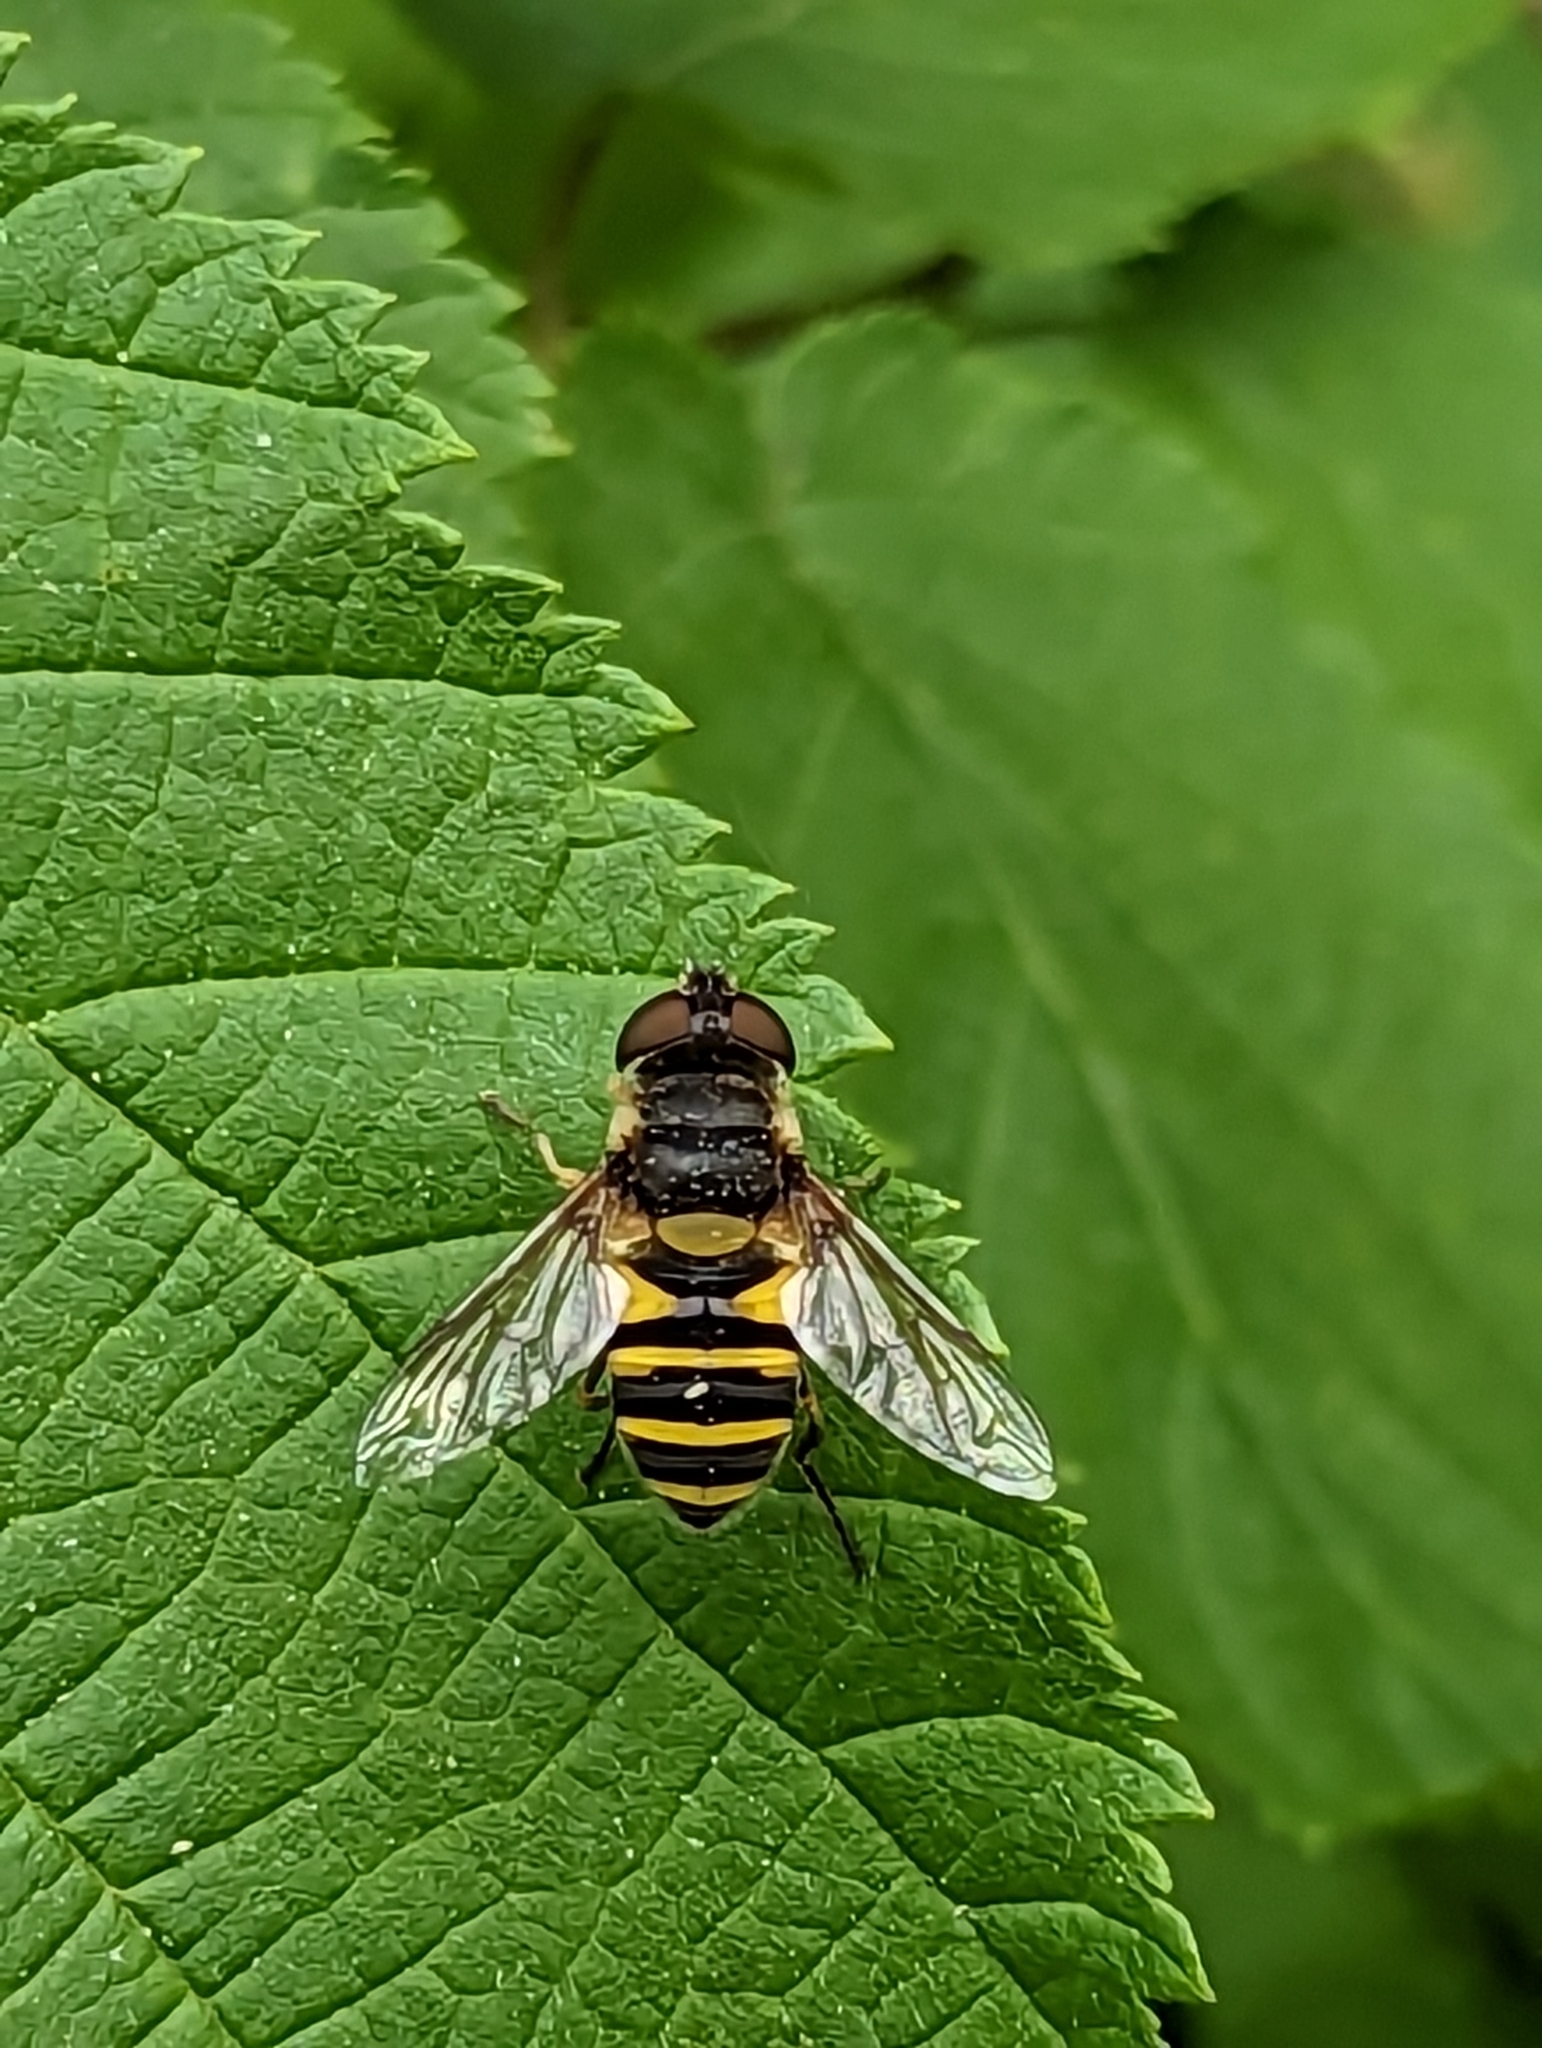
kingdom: Animalia
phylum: Arthropoda
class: Insecta
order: Diptera
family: Syrphidae
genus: Eristalis
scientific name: Eristalis transversa
